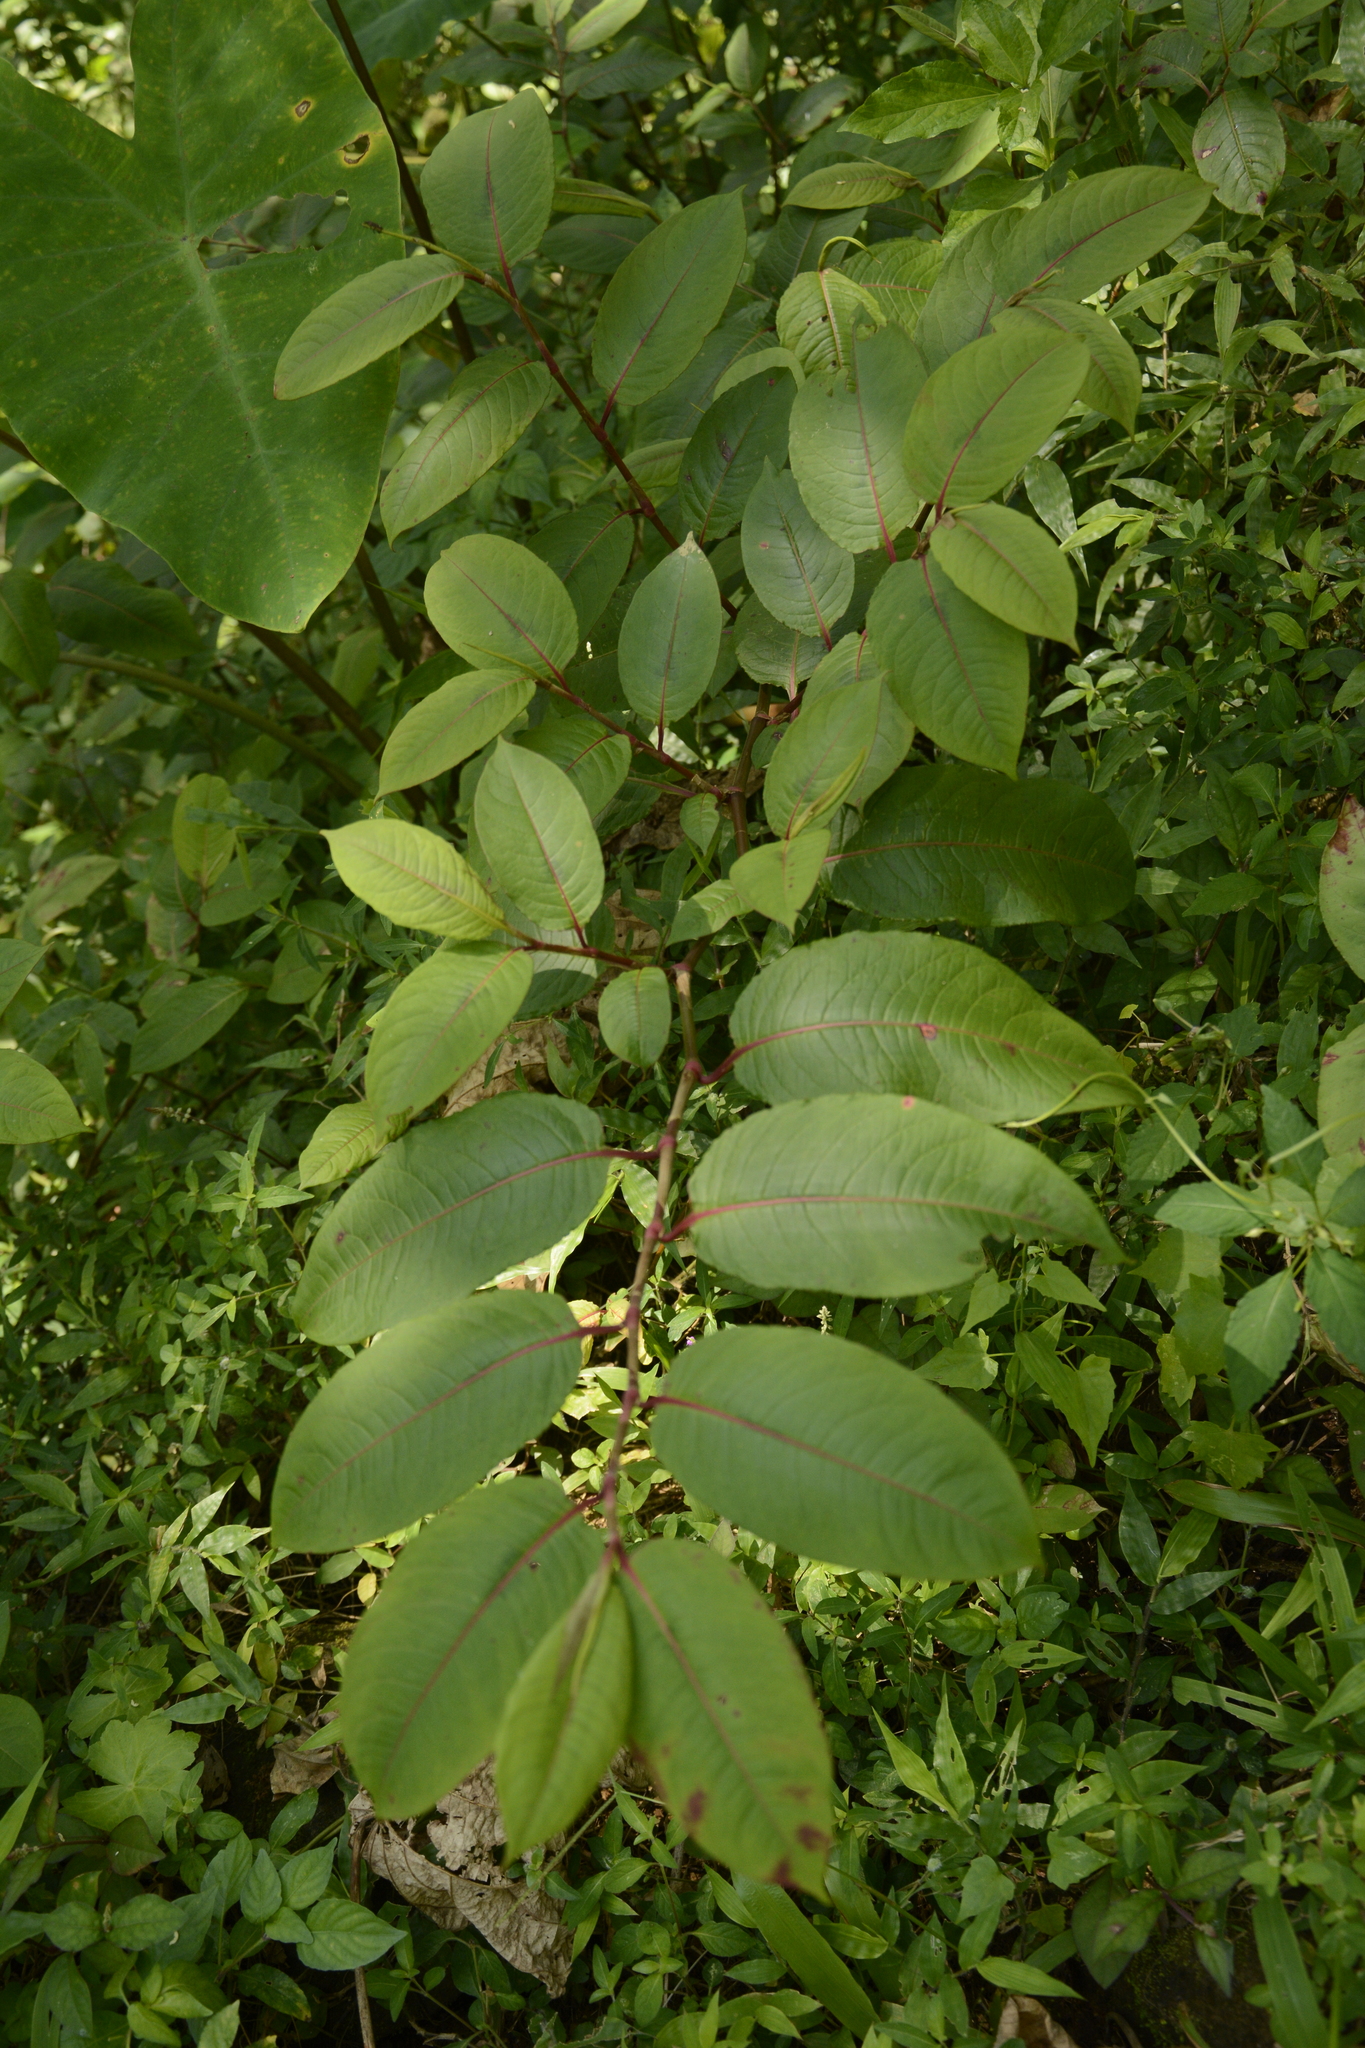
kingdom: Plantae
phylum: Tracheophyta
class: Magnoliopsida
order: Caryophyllales
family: Polygonaceae
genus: Persicaria
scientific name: Persicaria chinensis
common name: Chinese knotweed
